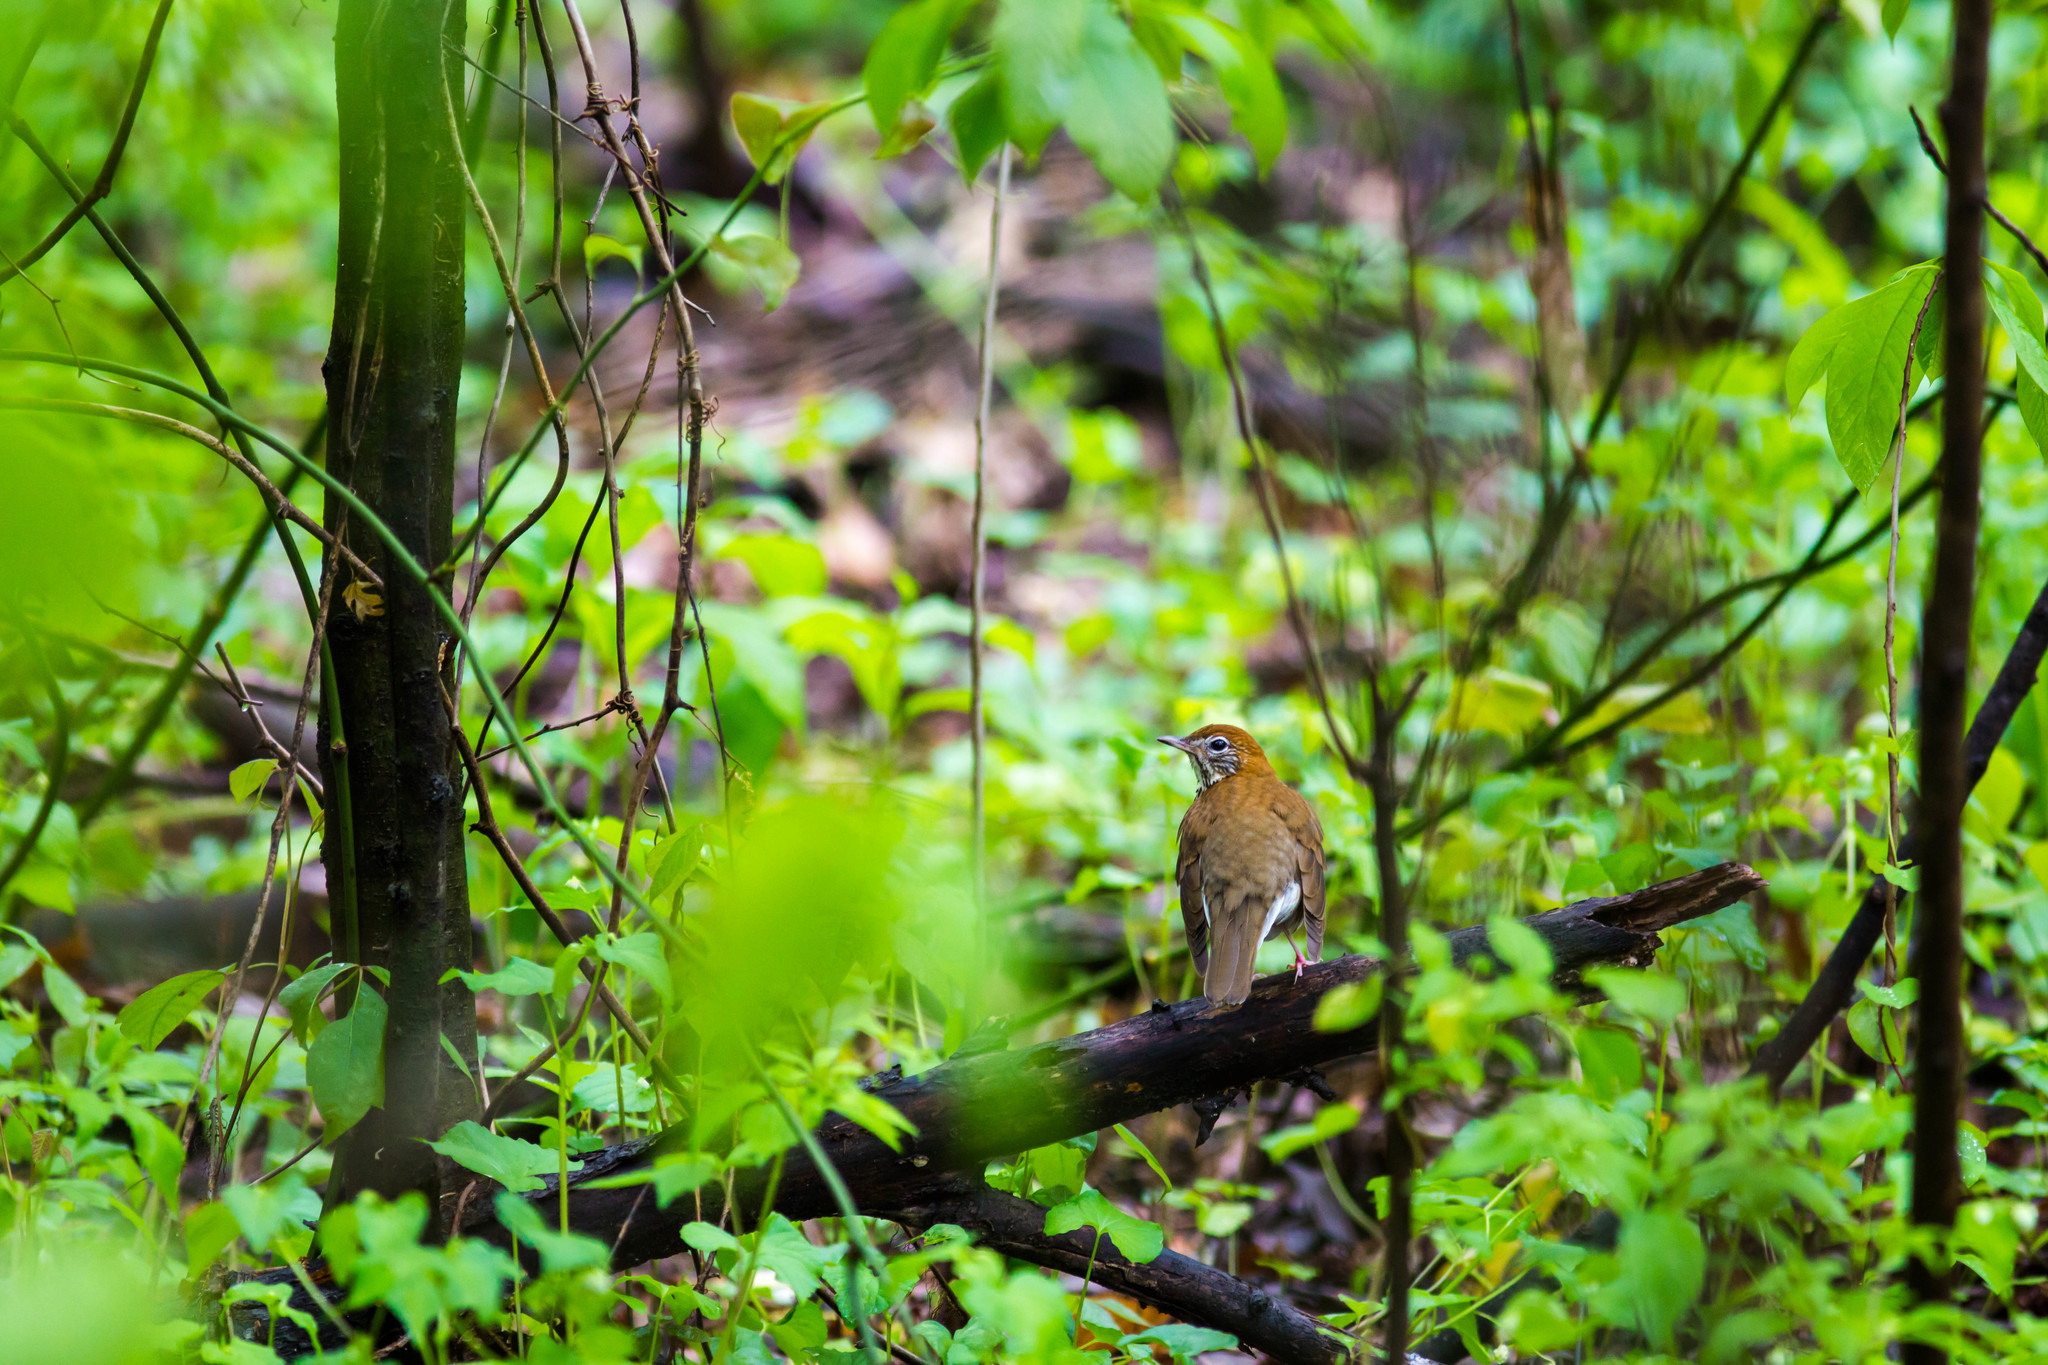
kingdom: Animalia
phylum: Chordata
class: Aves
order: Passeriformes
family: Turdidae
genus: Hylocichla
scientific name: Hylocichla mustelina
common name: Wood thrush
